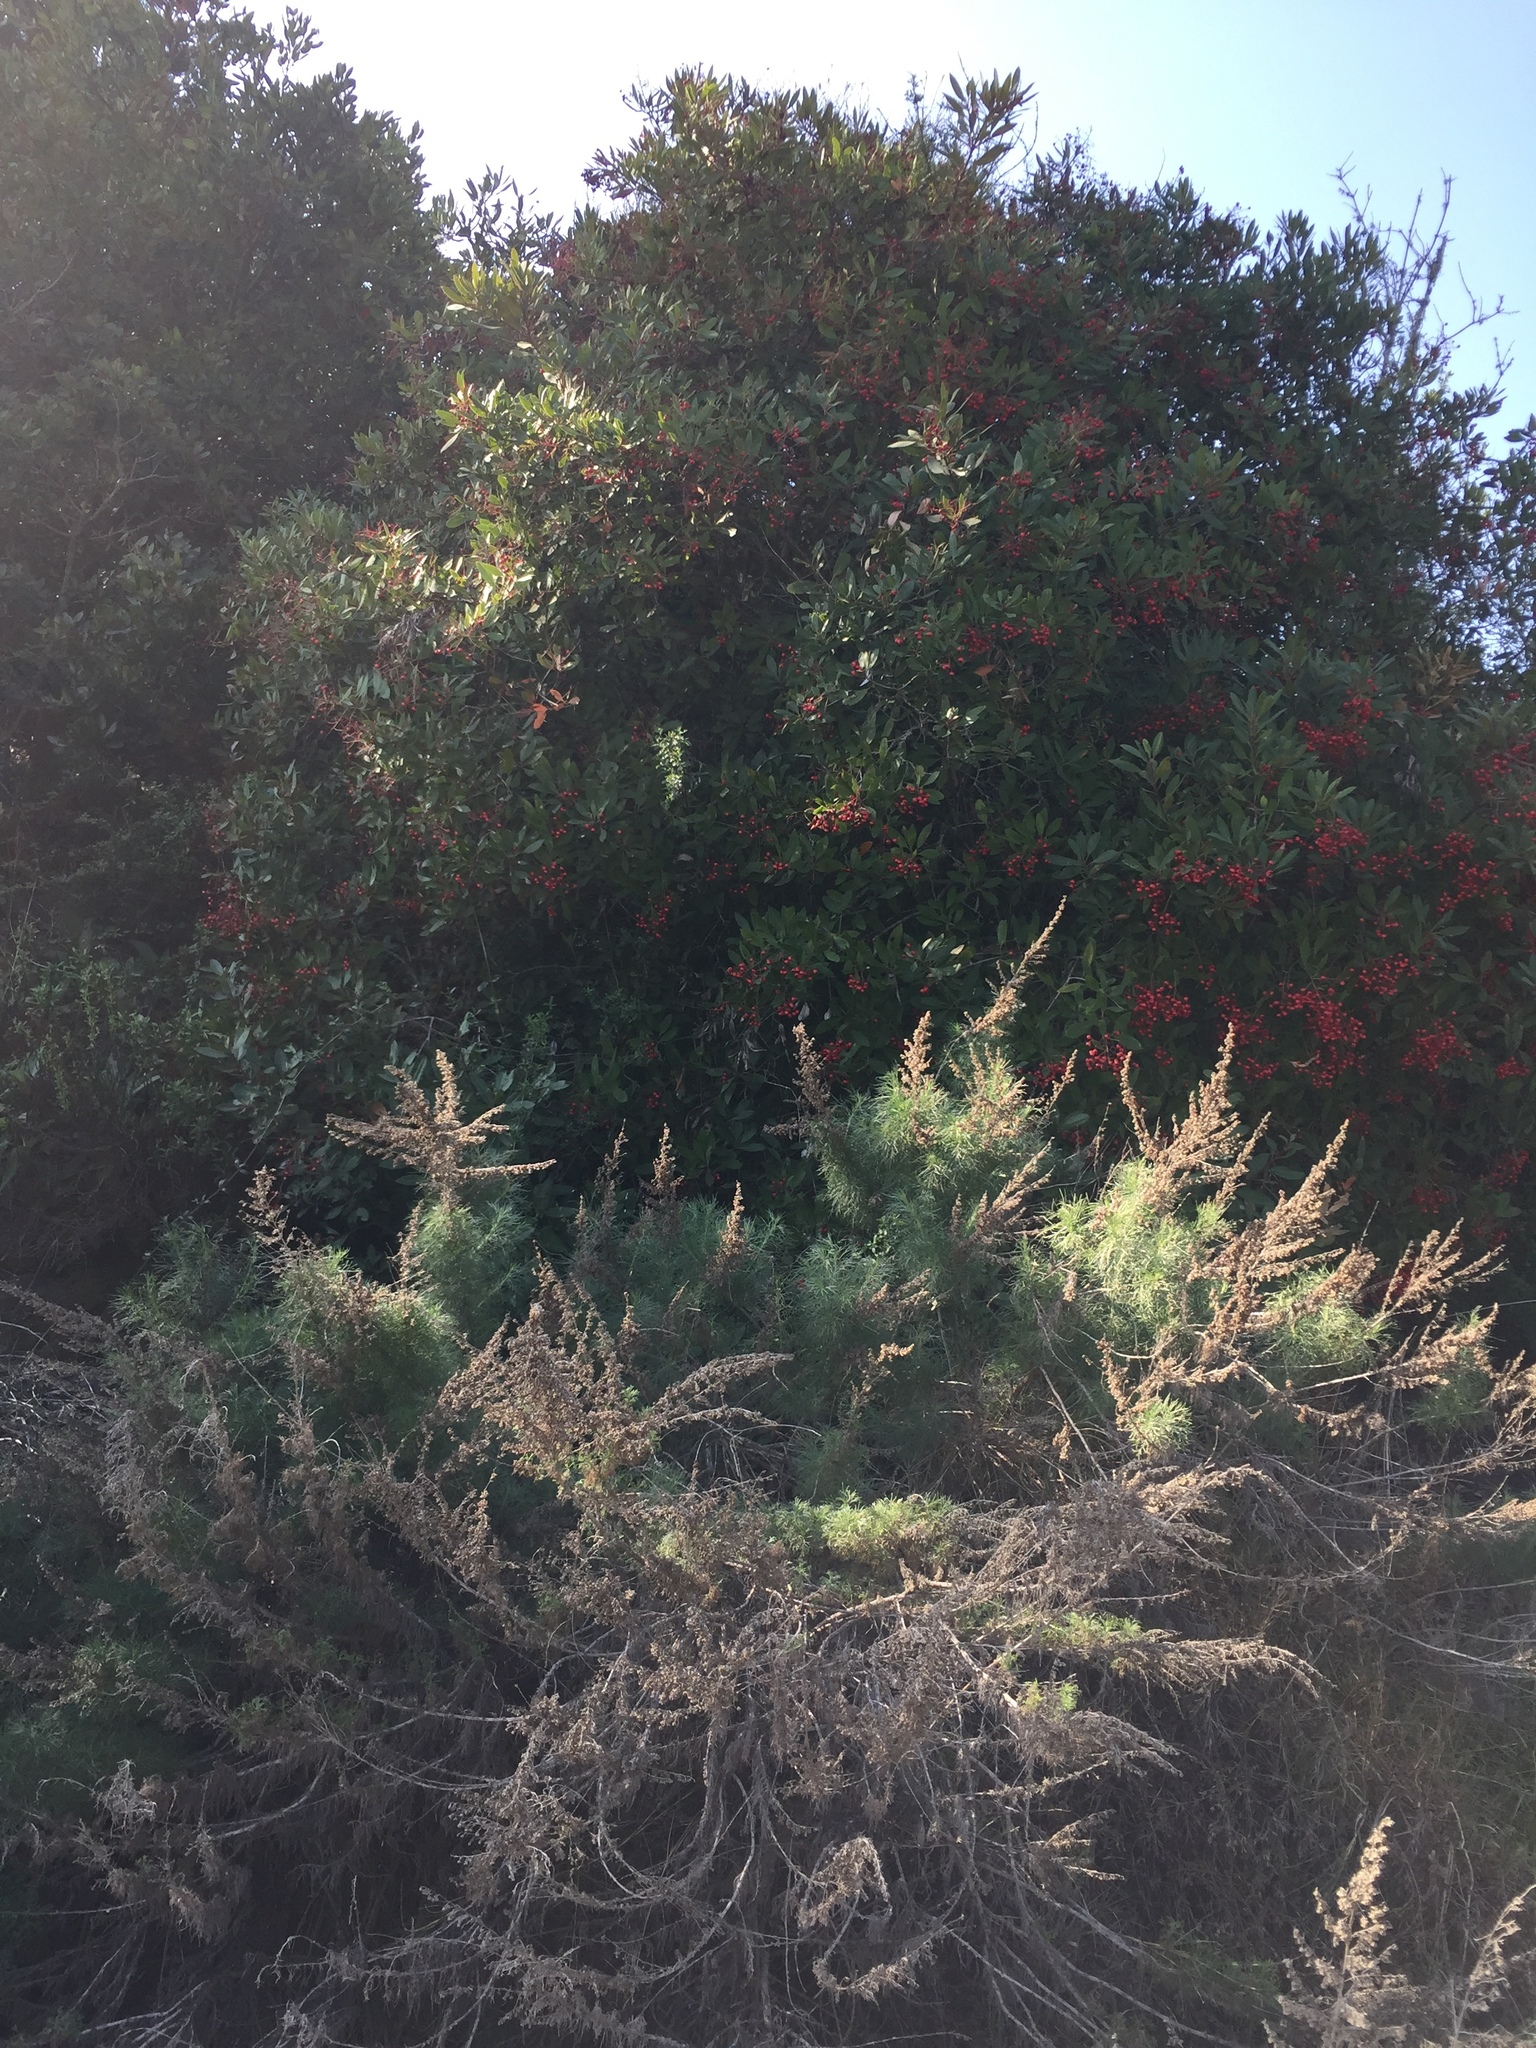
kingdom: Plantae
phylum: Tracheophyta
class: Magnoliopsida
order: Rosales
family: Rosaceae
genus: Heteromeles
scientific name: Heteromeles arbutifolia
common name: California-holly
